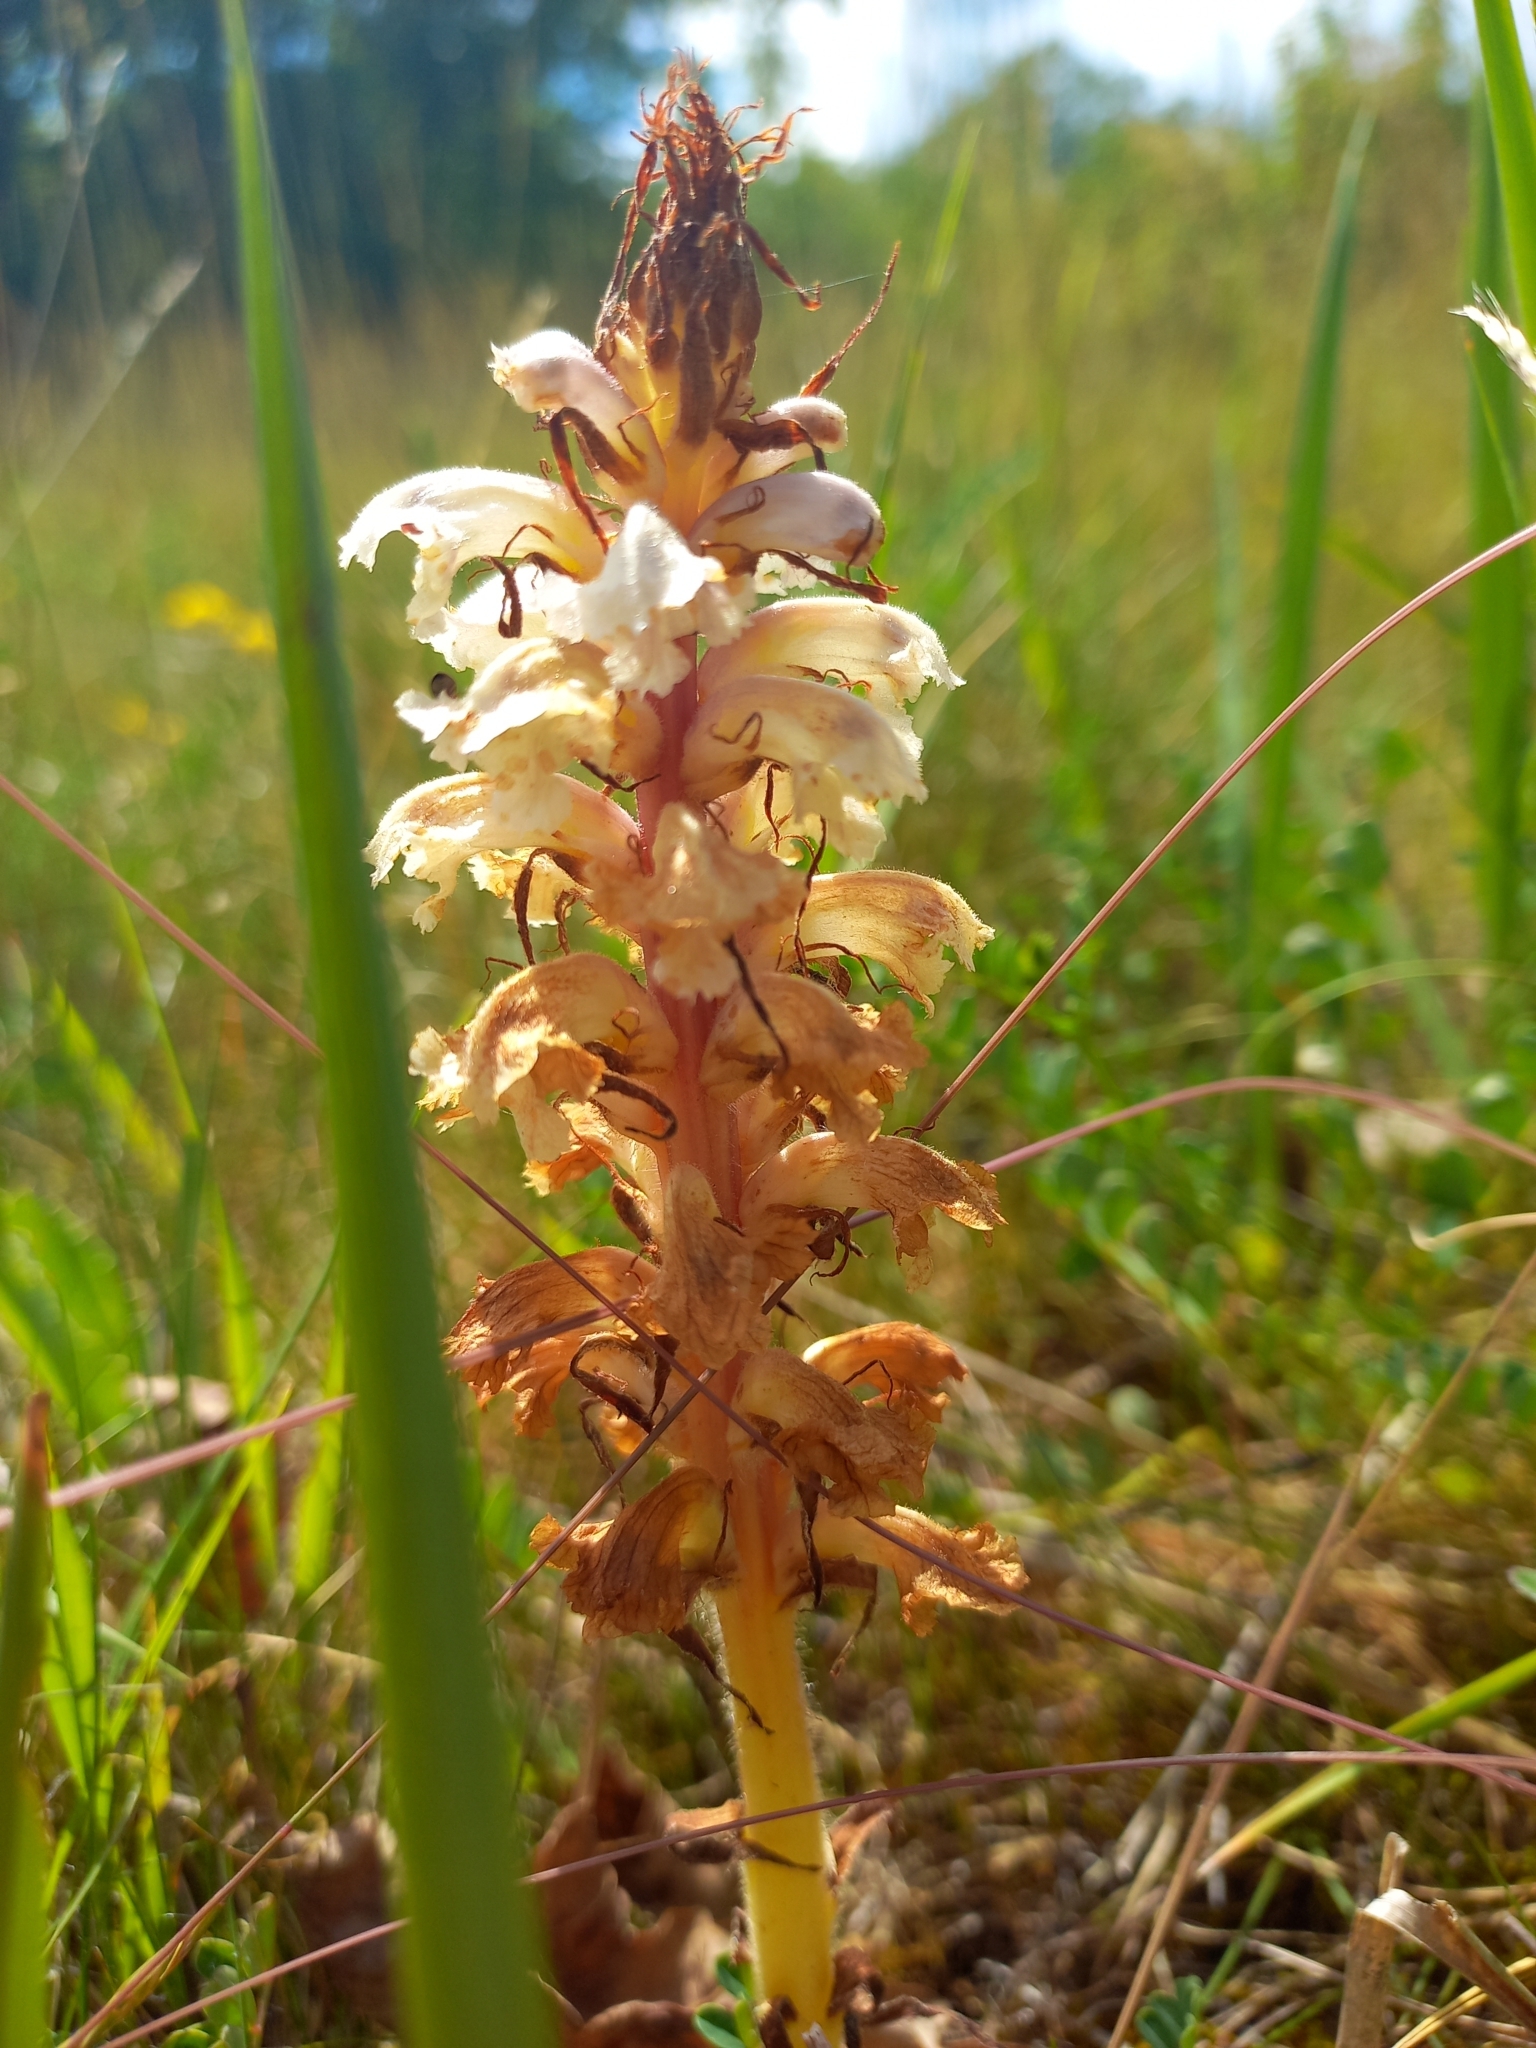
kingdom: Plantae
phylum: Tracheophyta
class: Magnoliopsida
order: Lamiales
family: Orobanchaceae
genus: Orobanche
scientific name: Orobanche amethystea
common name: Amethyst broomrape
